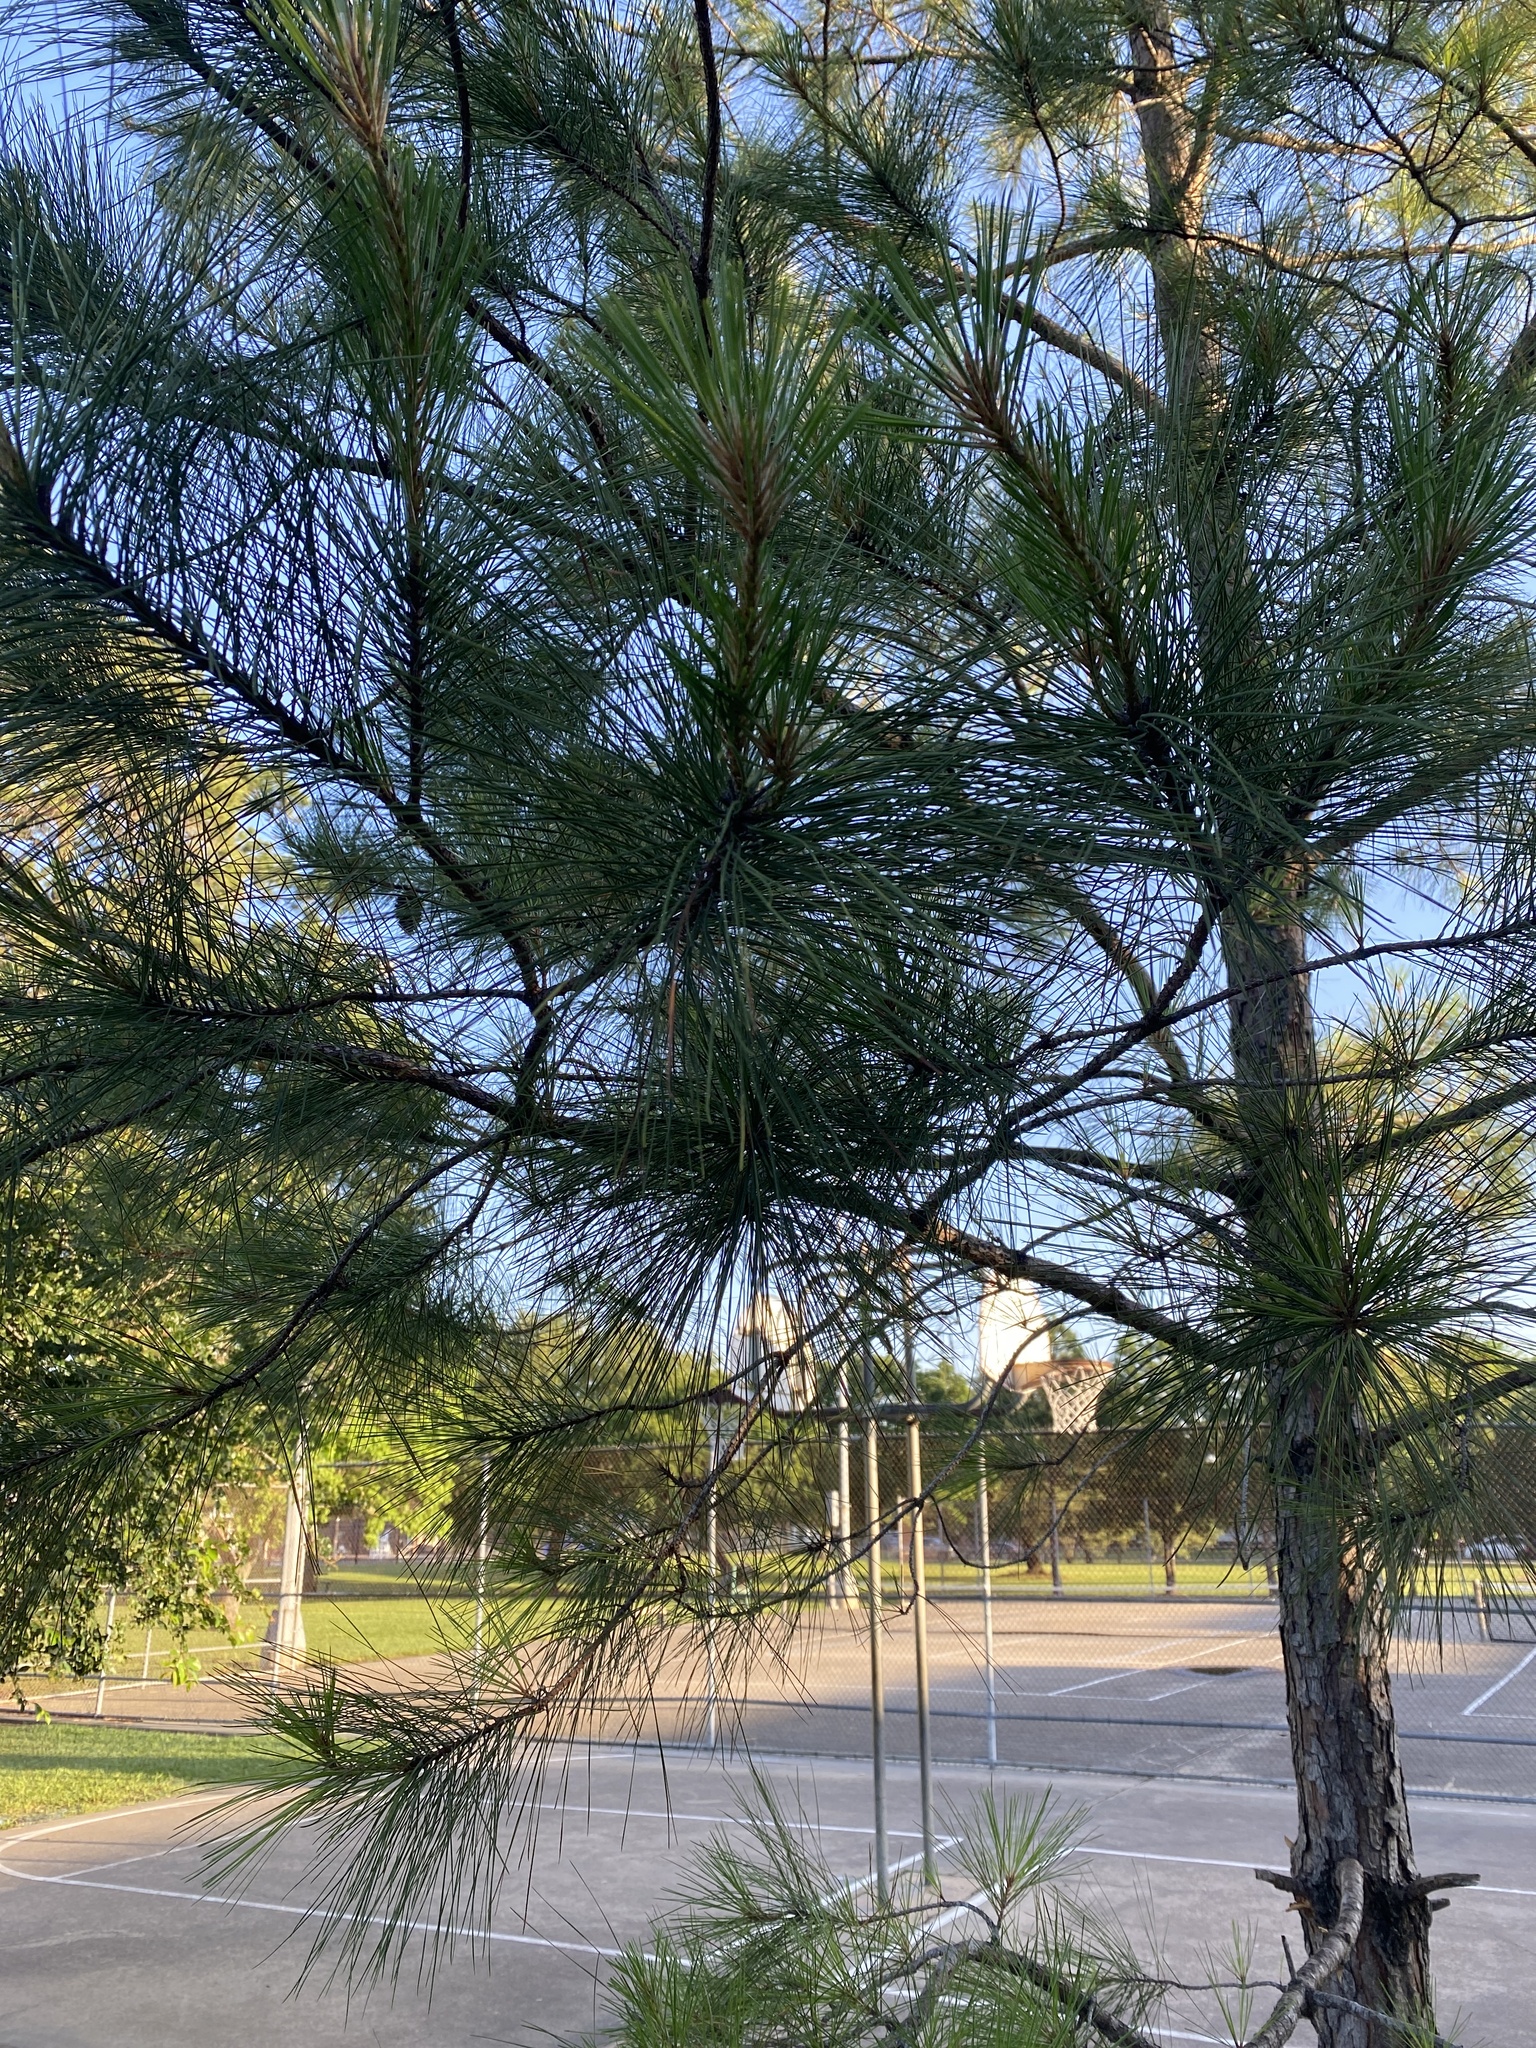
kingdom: Plantae
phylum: Tracheophyta
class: Pinopsida
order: Pinales
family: Pinaceae
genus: Pinus
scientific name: Pinus taeda
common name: Loblolly pine
